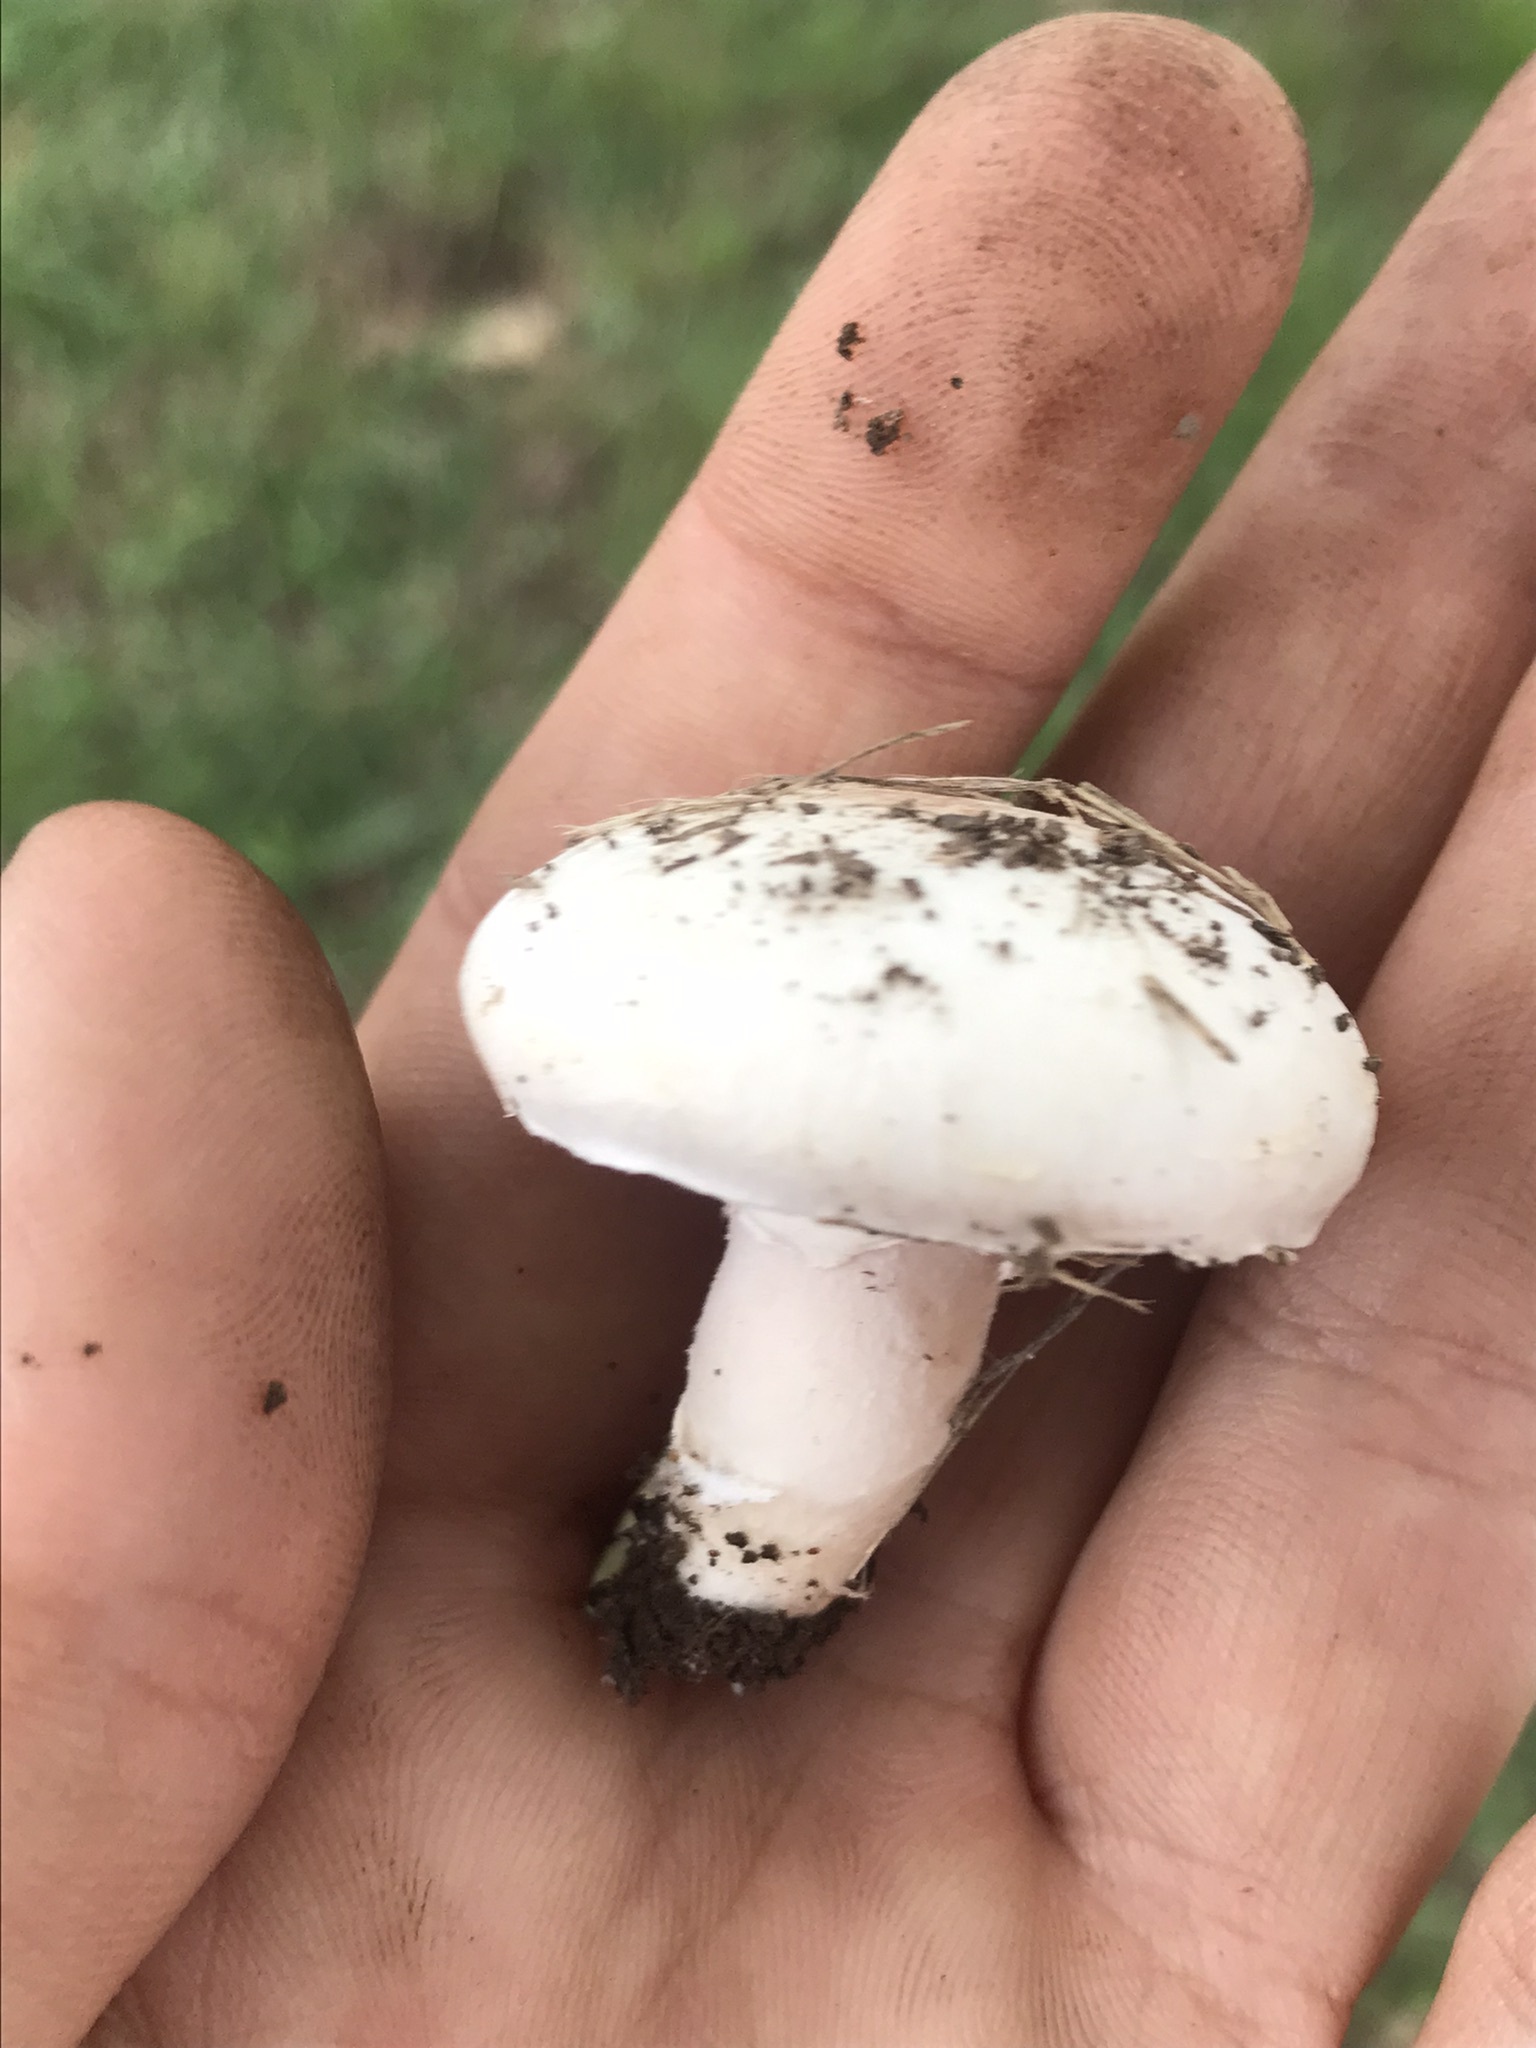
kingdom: Fungi
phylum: Basidiomycota
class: Agaricomycetes
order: Agaricales
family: Agaricaceae
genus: Agaricus
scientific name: Agaricus campestris
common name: Field mushroom
